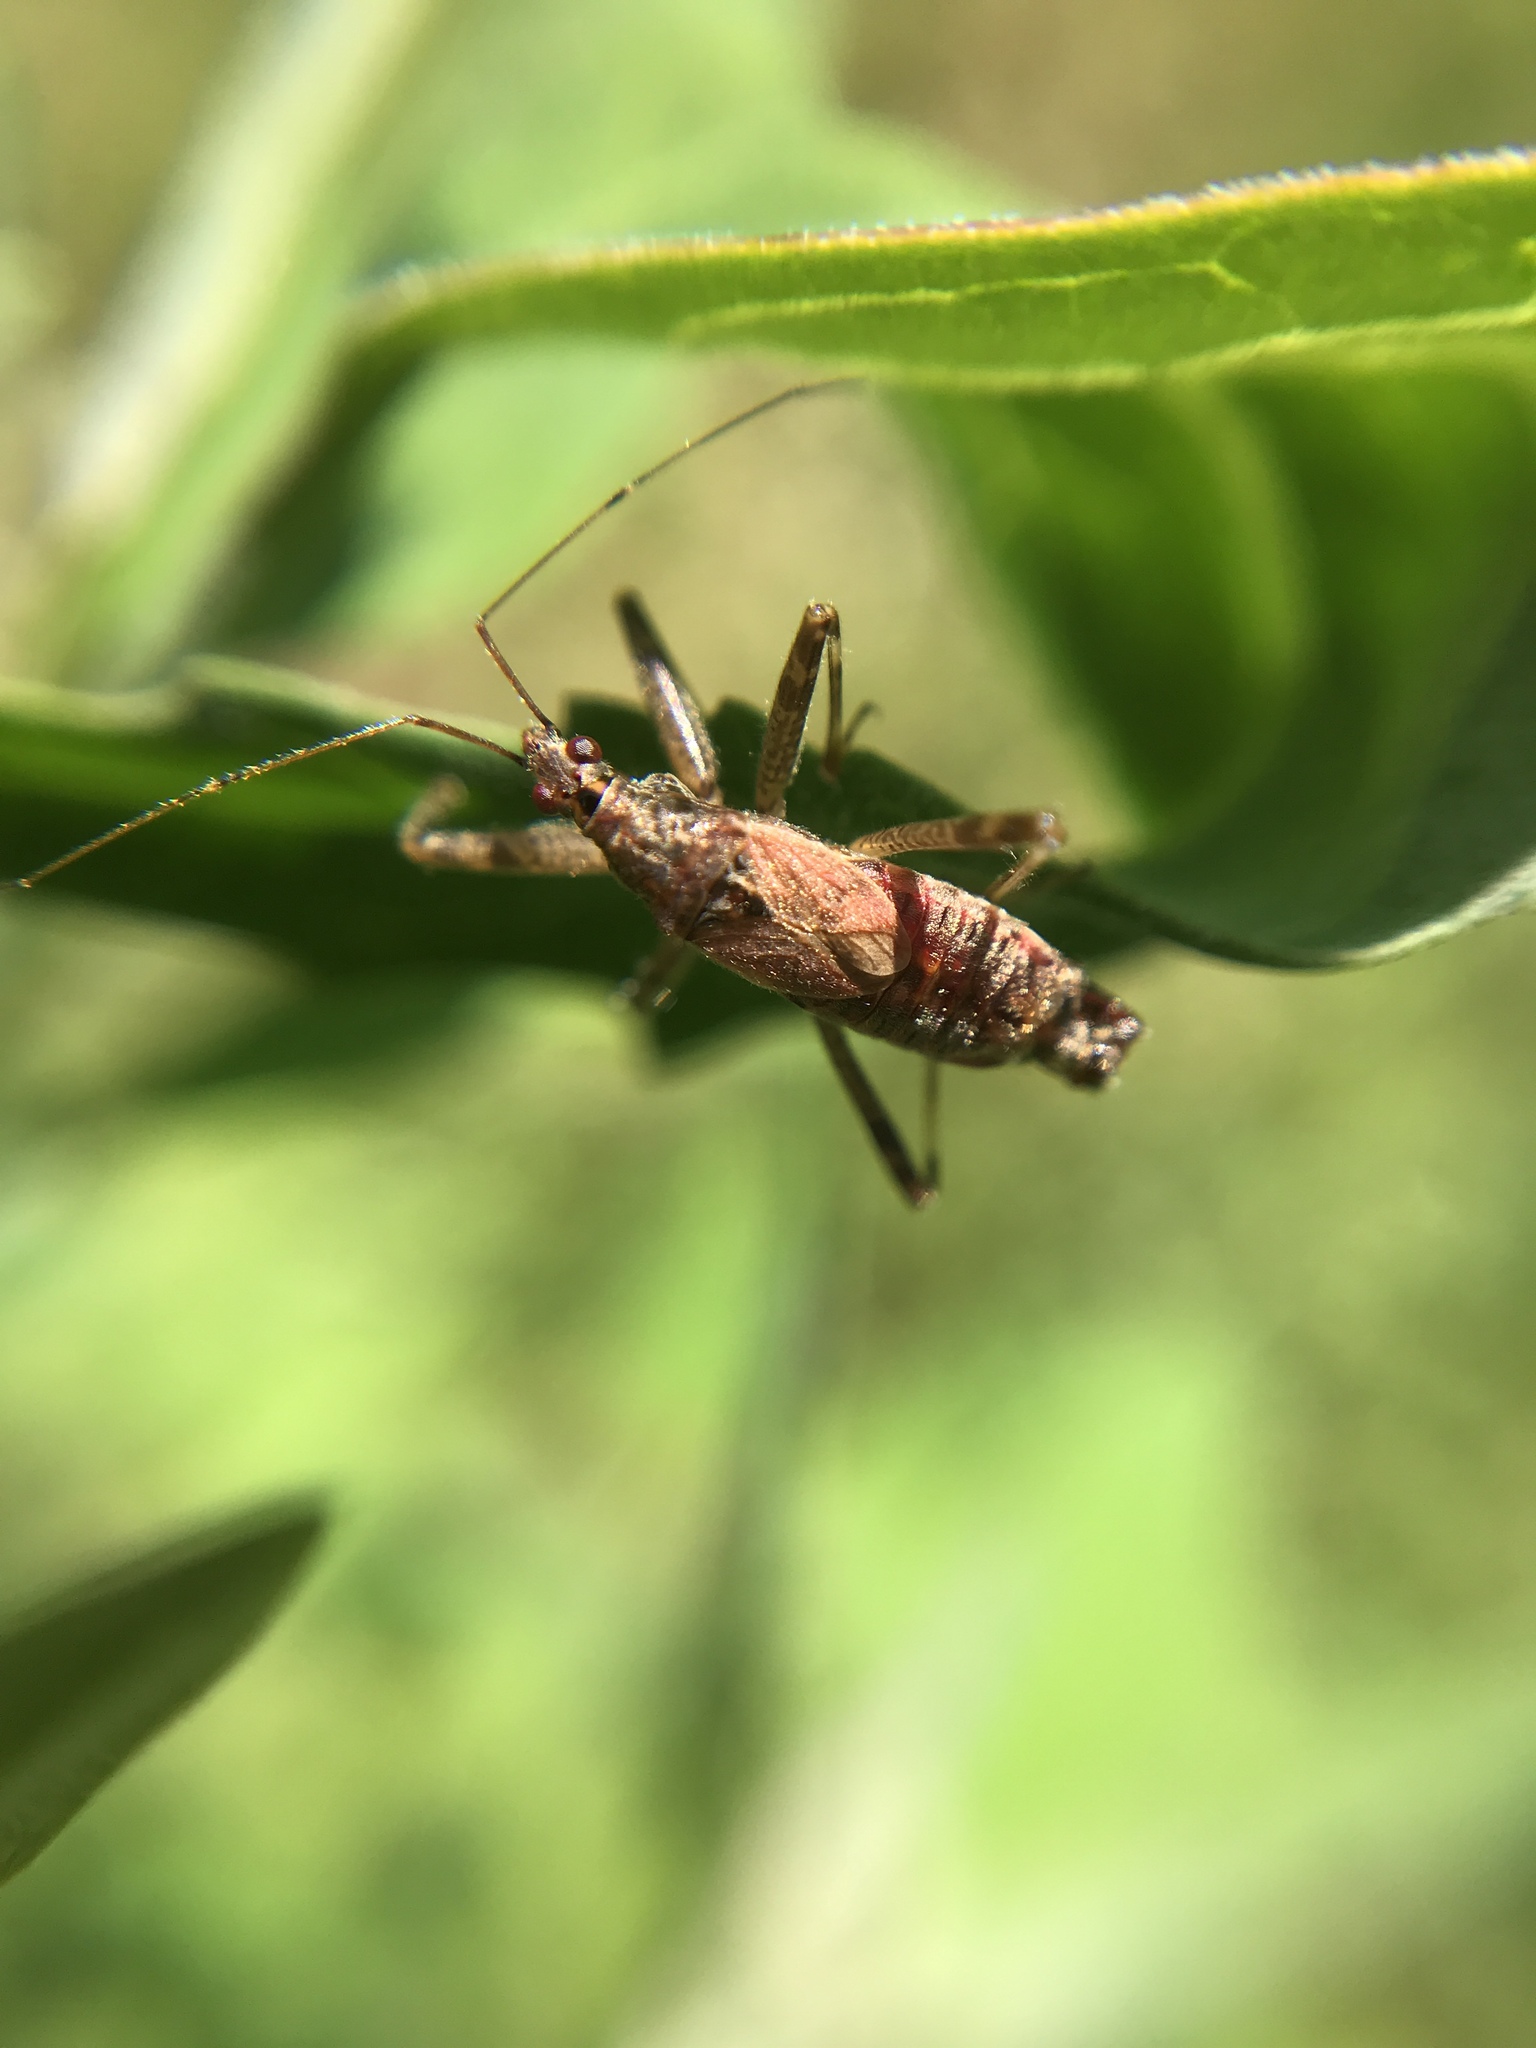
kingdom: Animalia
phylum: Arthropoda
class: Insecta
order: Hemiptera
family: Nabidae
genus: Himacerus
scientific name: Himacerus apterus
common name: Tree damsel bug
